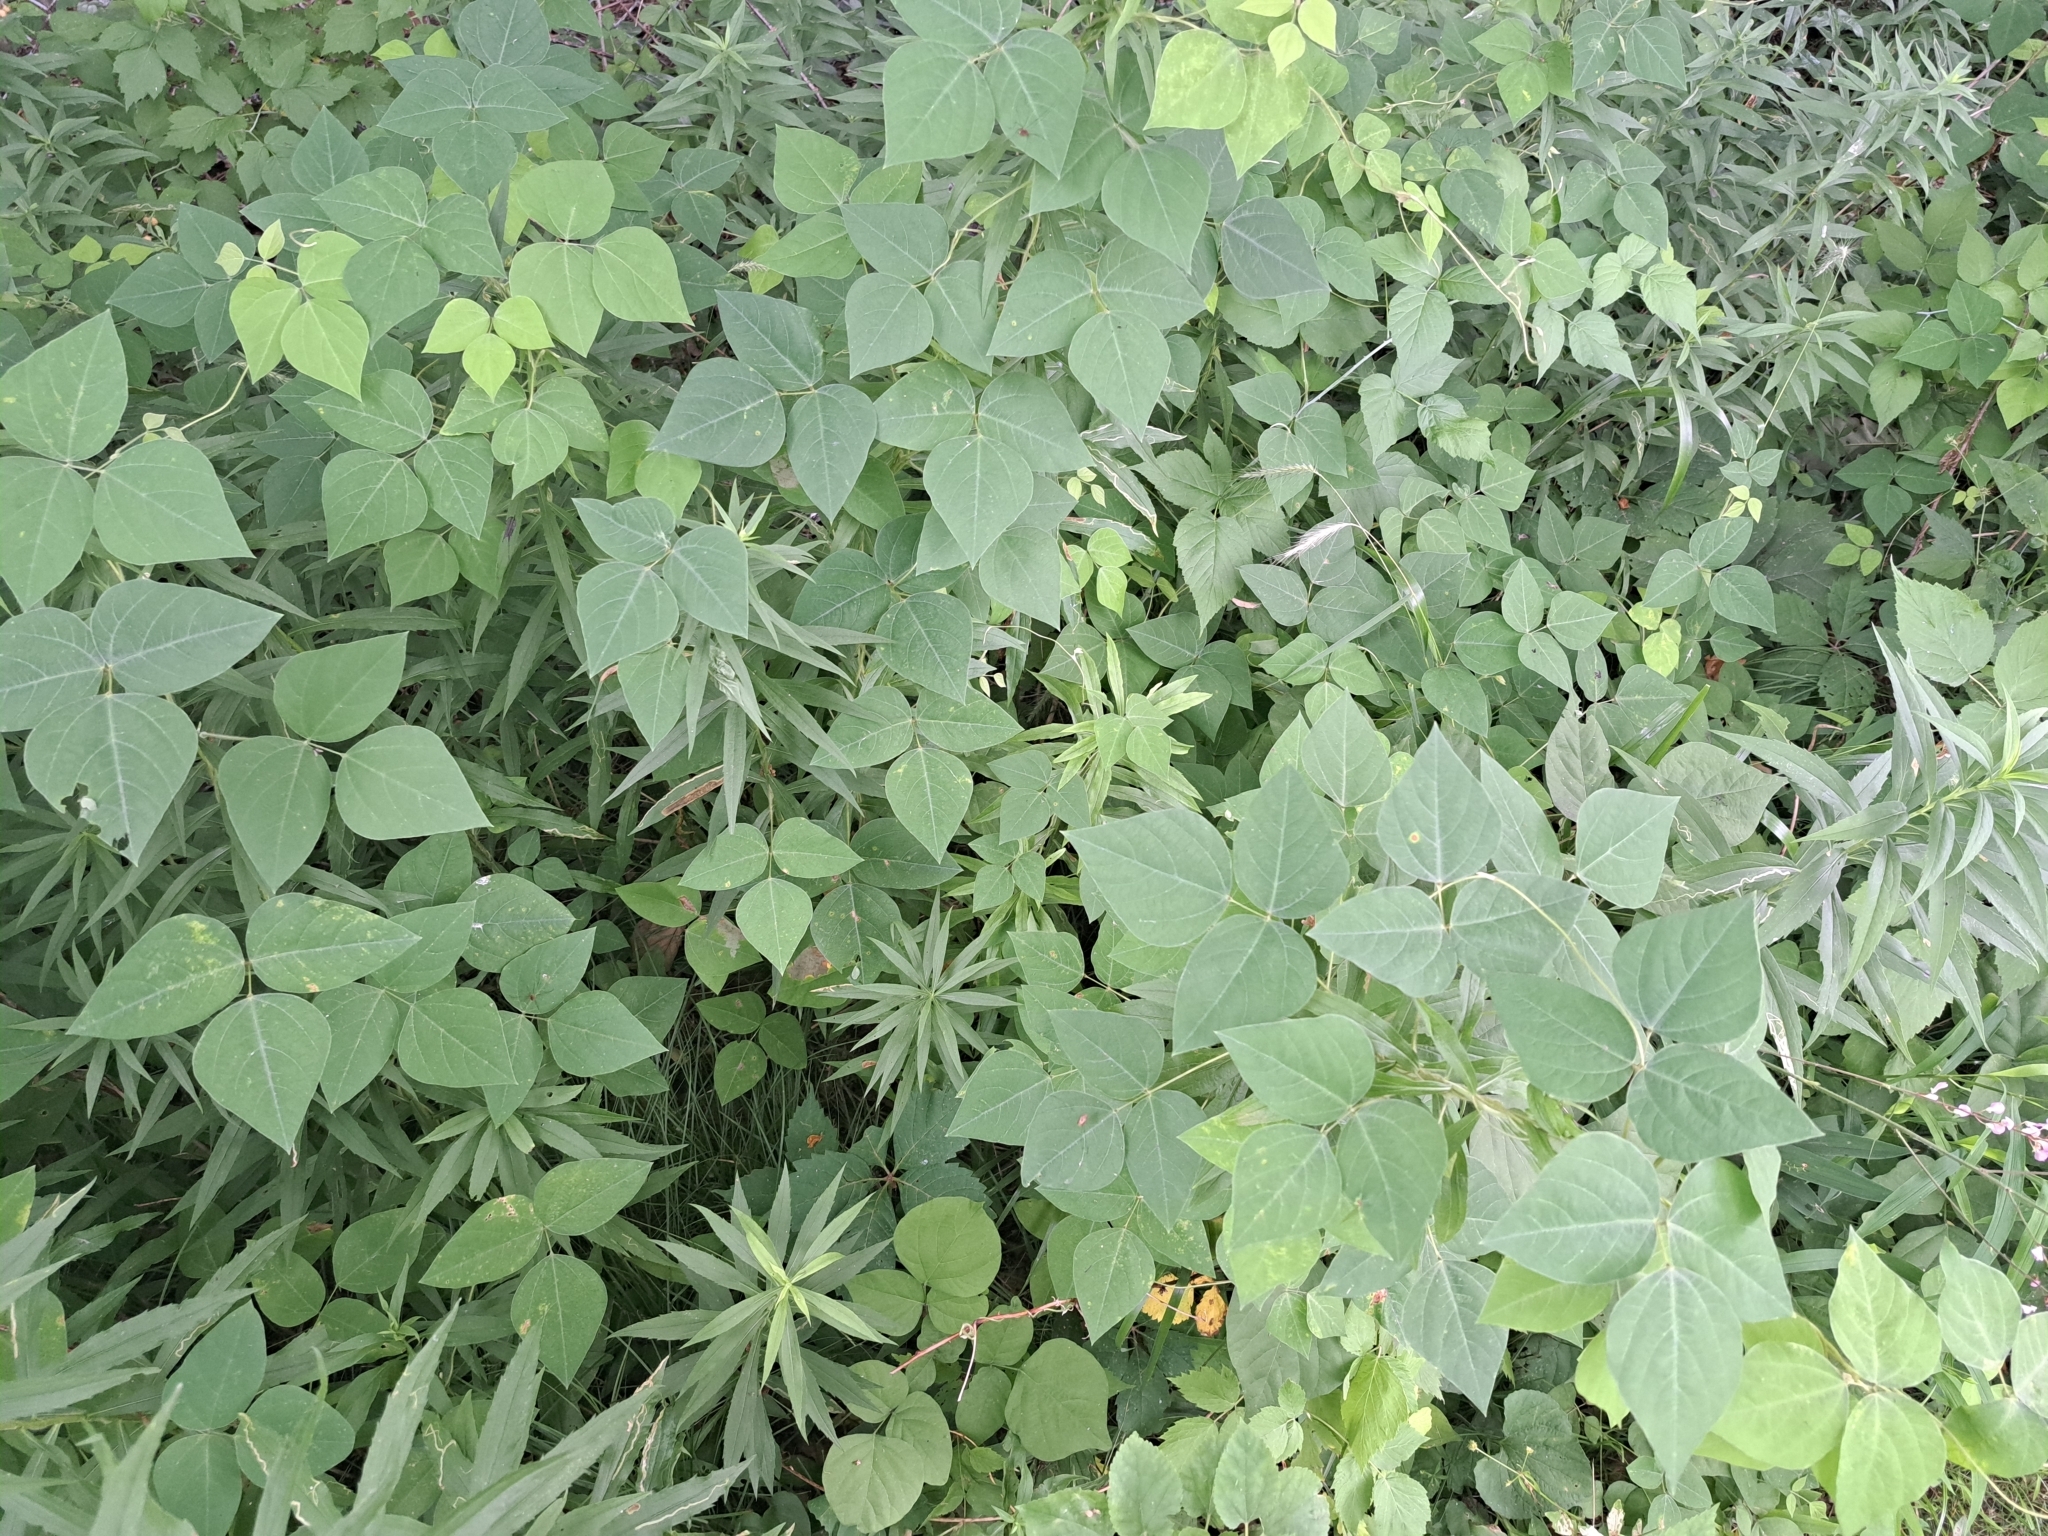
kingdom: Plantae
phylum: Tracheophyta
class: Magnoliopsida
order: Fabales
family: Fabaceae
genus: Amphicarpaea
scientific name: Amphicarpaea bracteata
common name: American hog peanut
